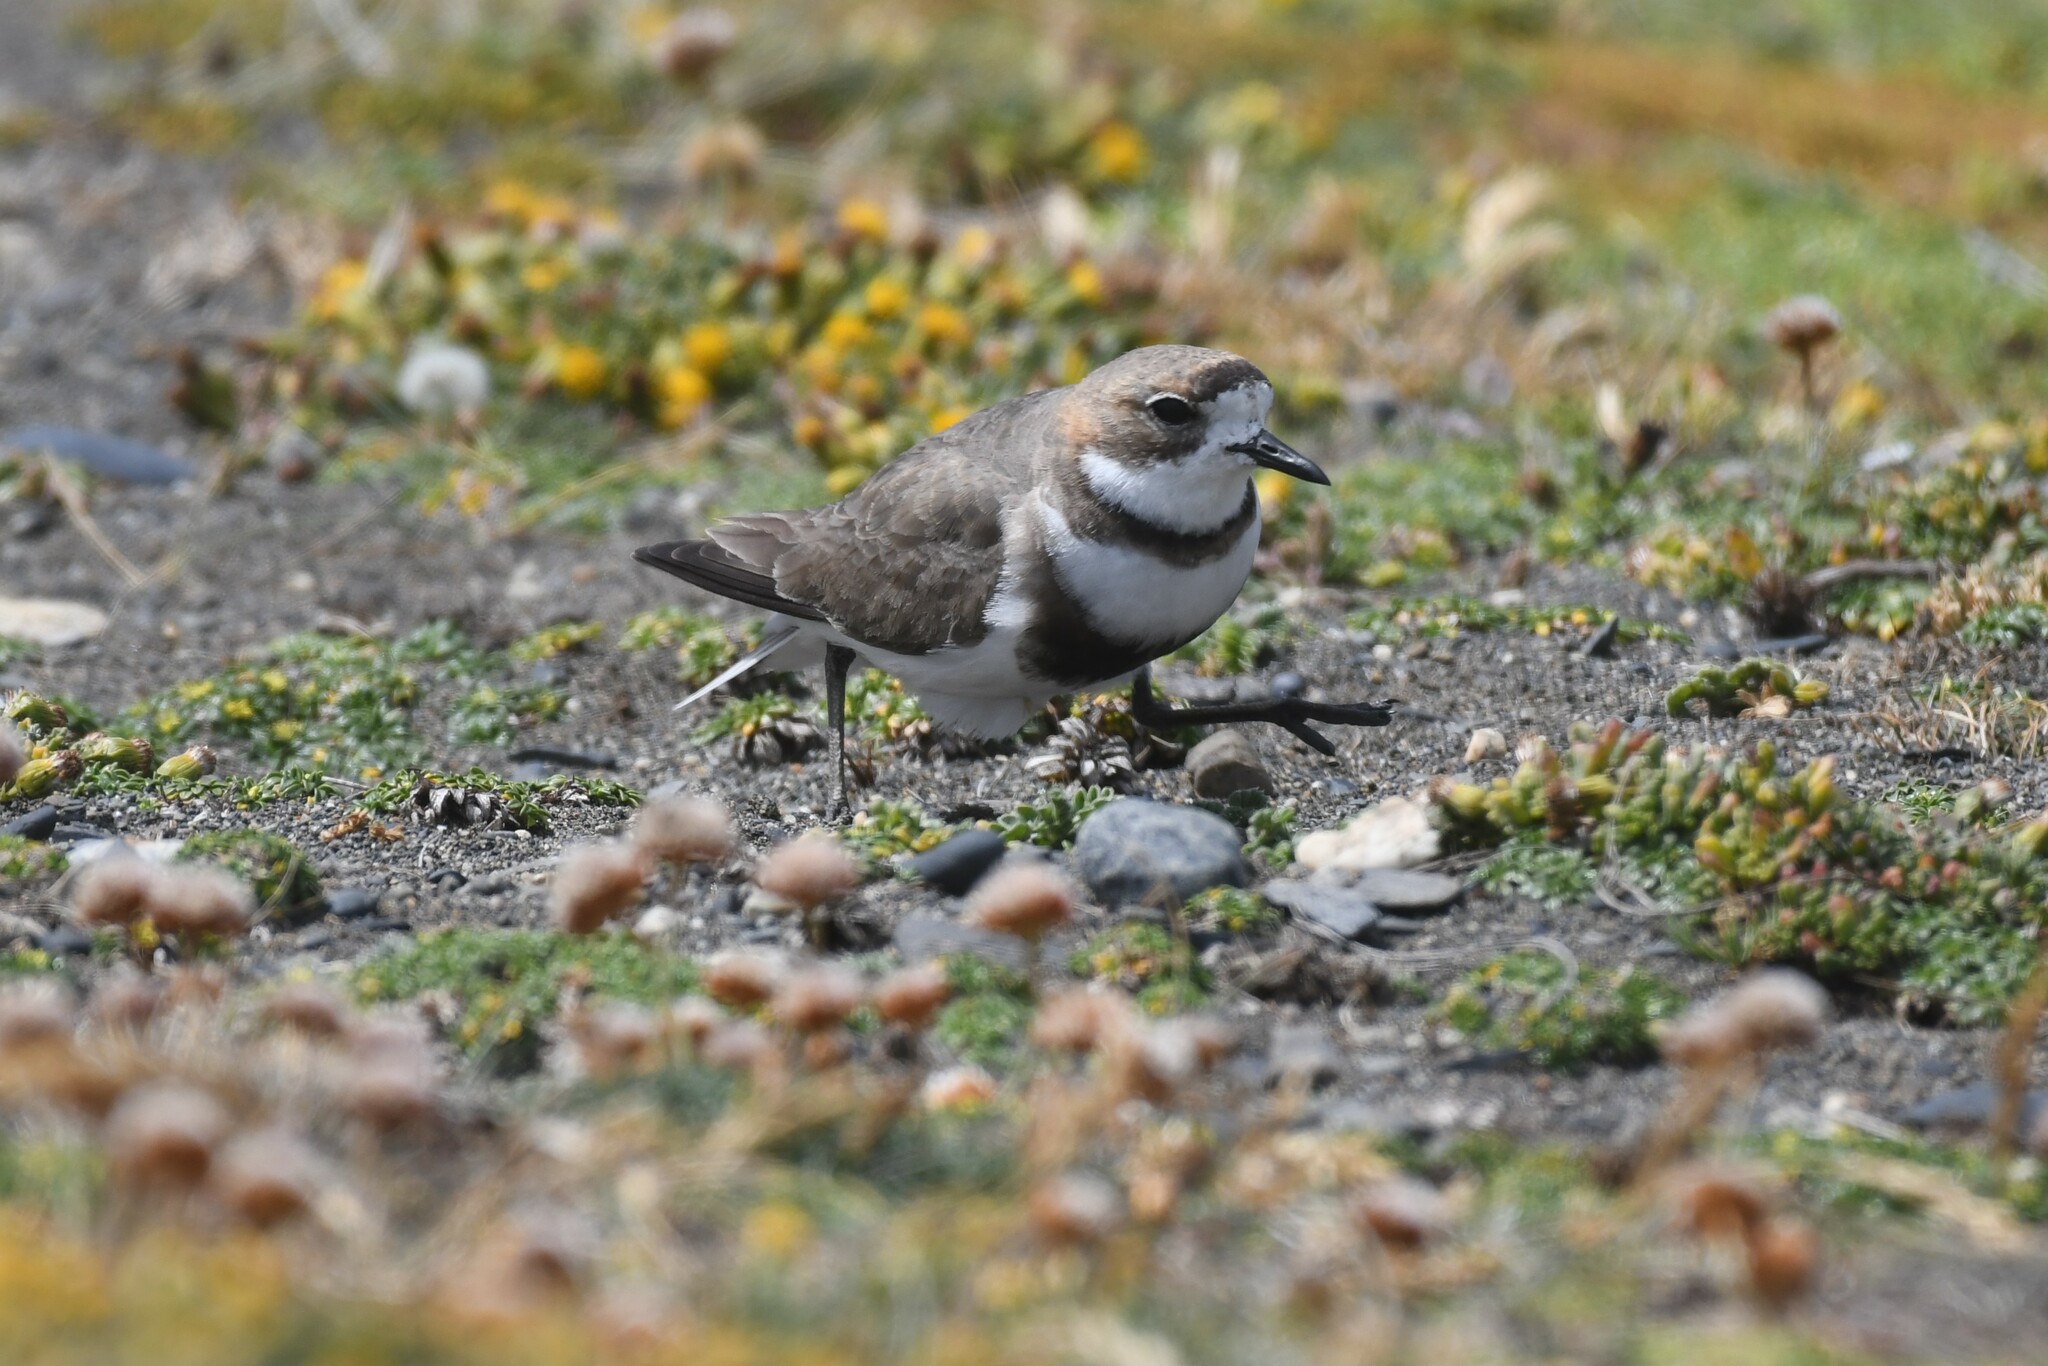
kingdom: Animalia
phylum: Chordata
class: Aves
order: Charadriiformes
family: Charadriidae
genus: Anarhynchus
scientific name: Anarhynchus
